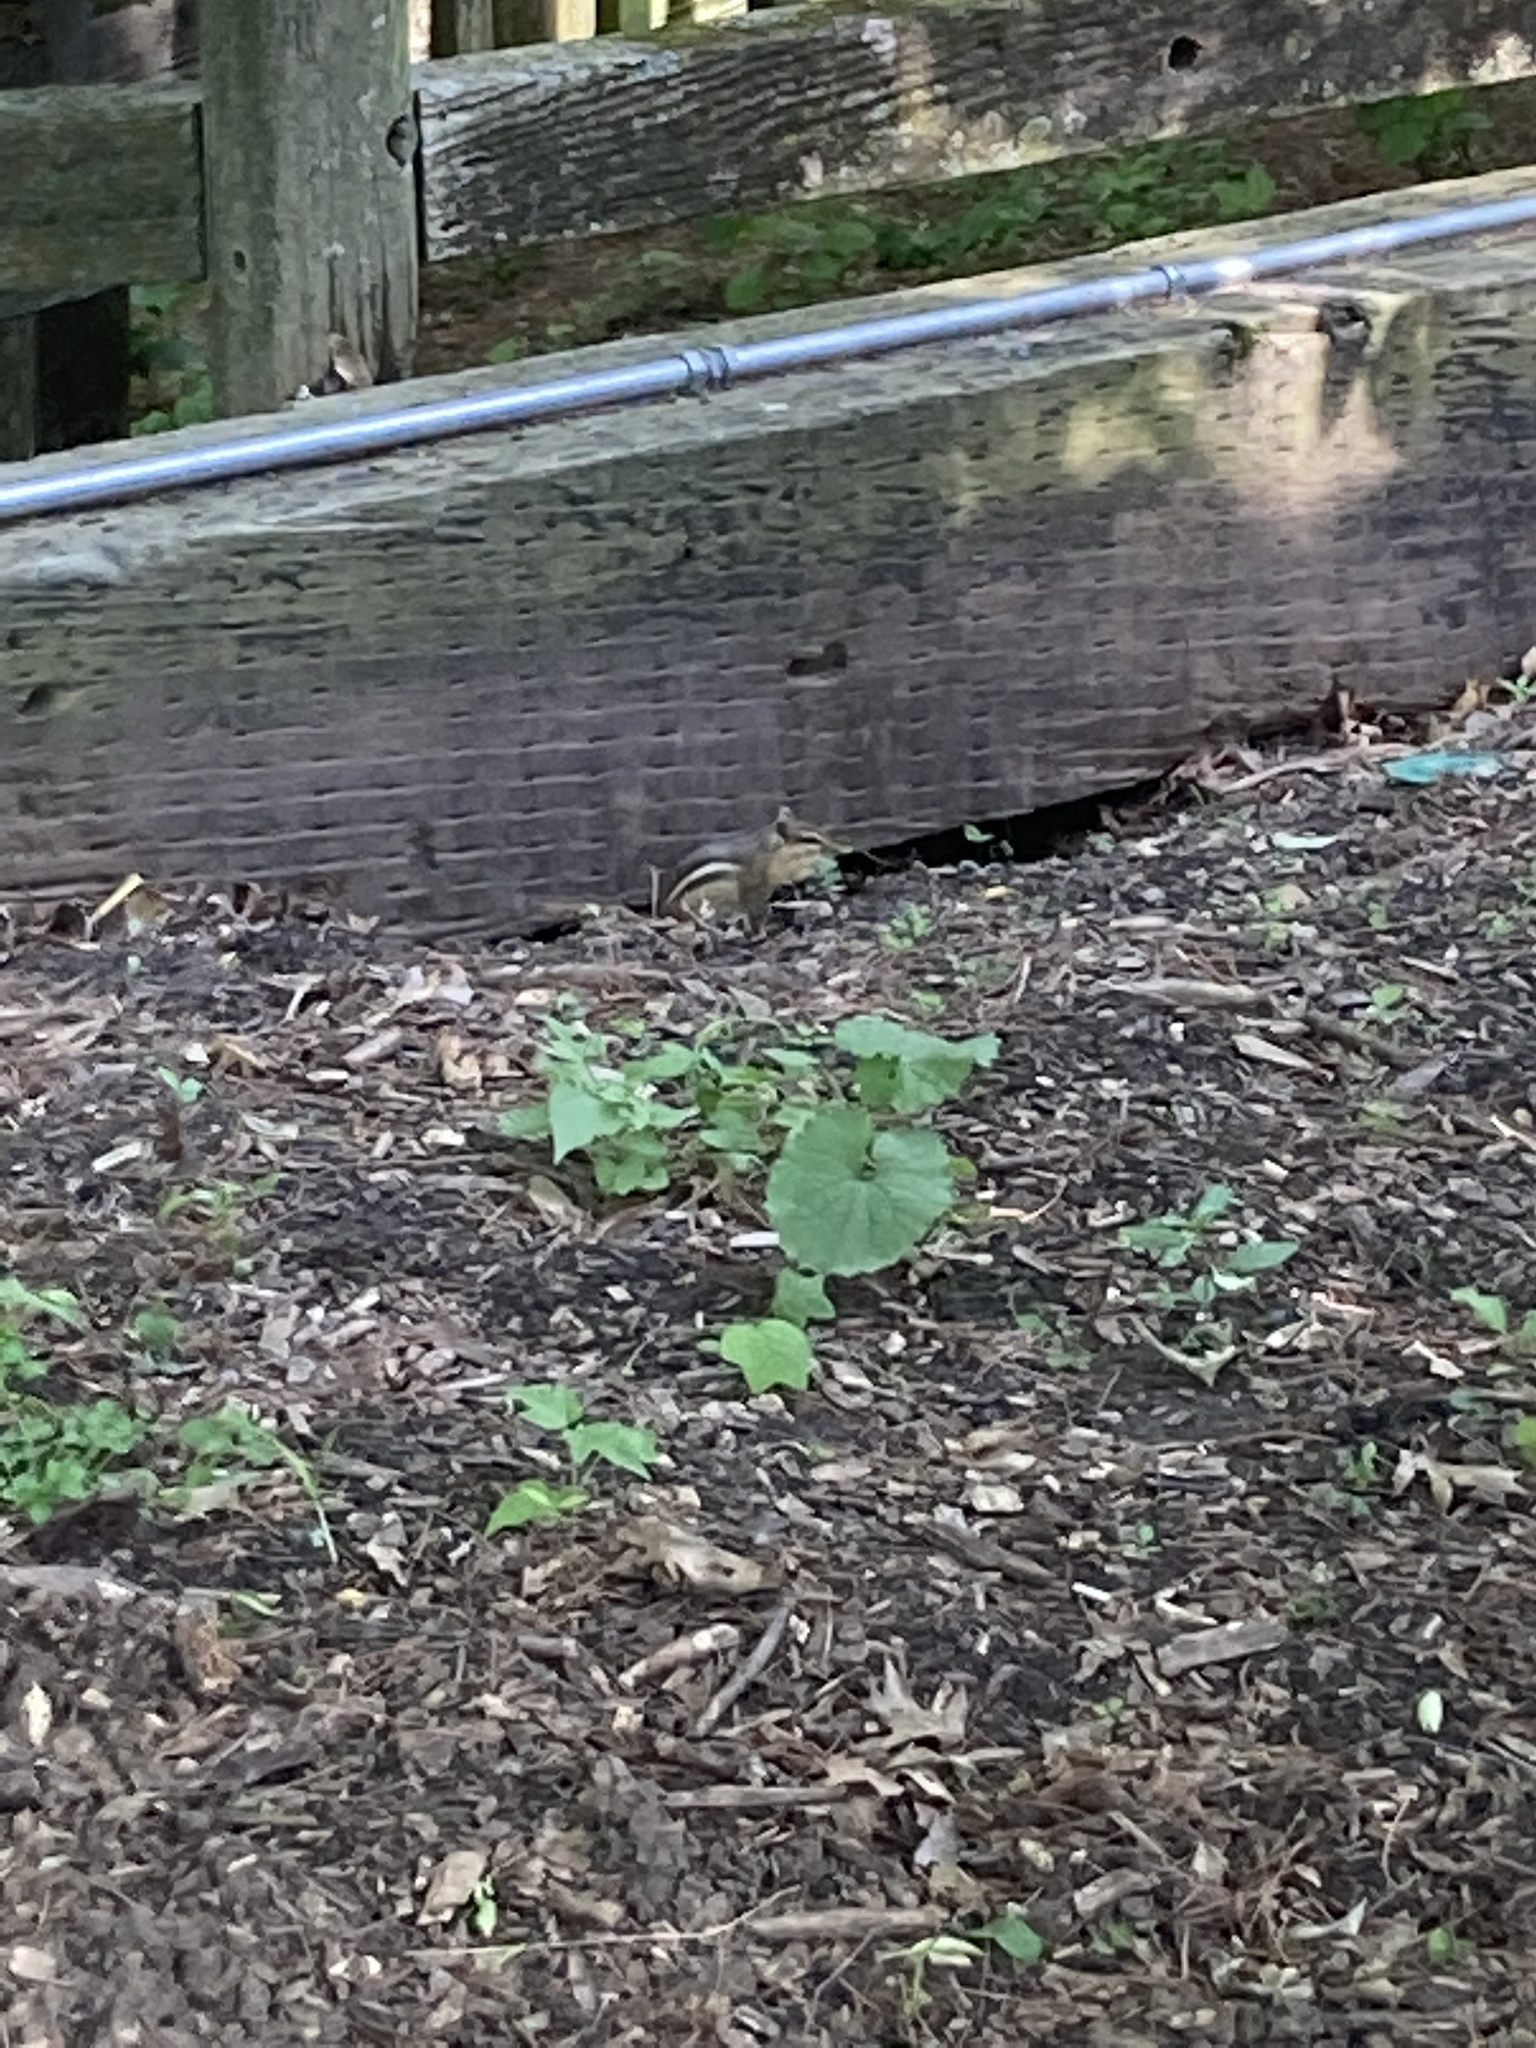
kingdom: Animalia
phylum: Chordata
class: Mammalia
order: Rodentia
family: Sciuridae
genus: Tamias
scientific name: Tamias striatus
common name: Eastern chipmunk
